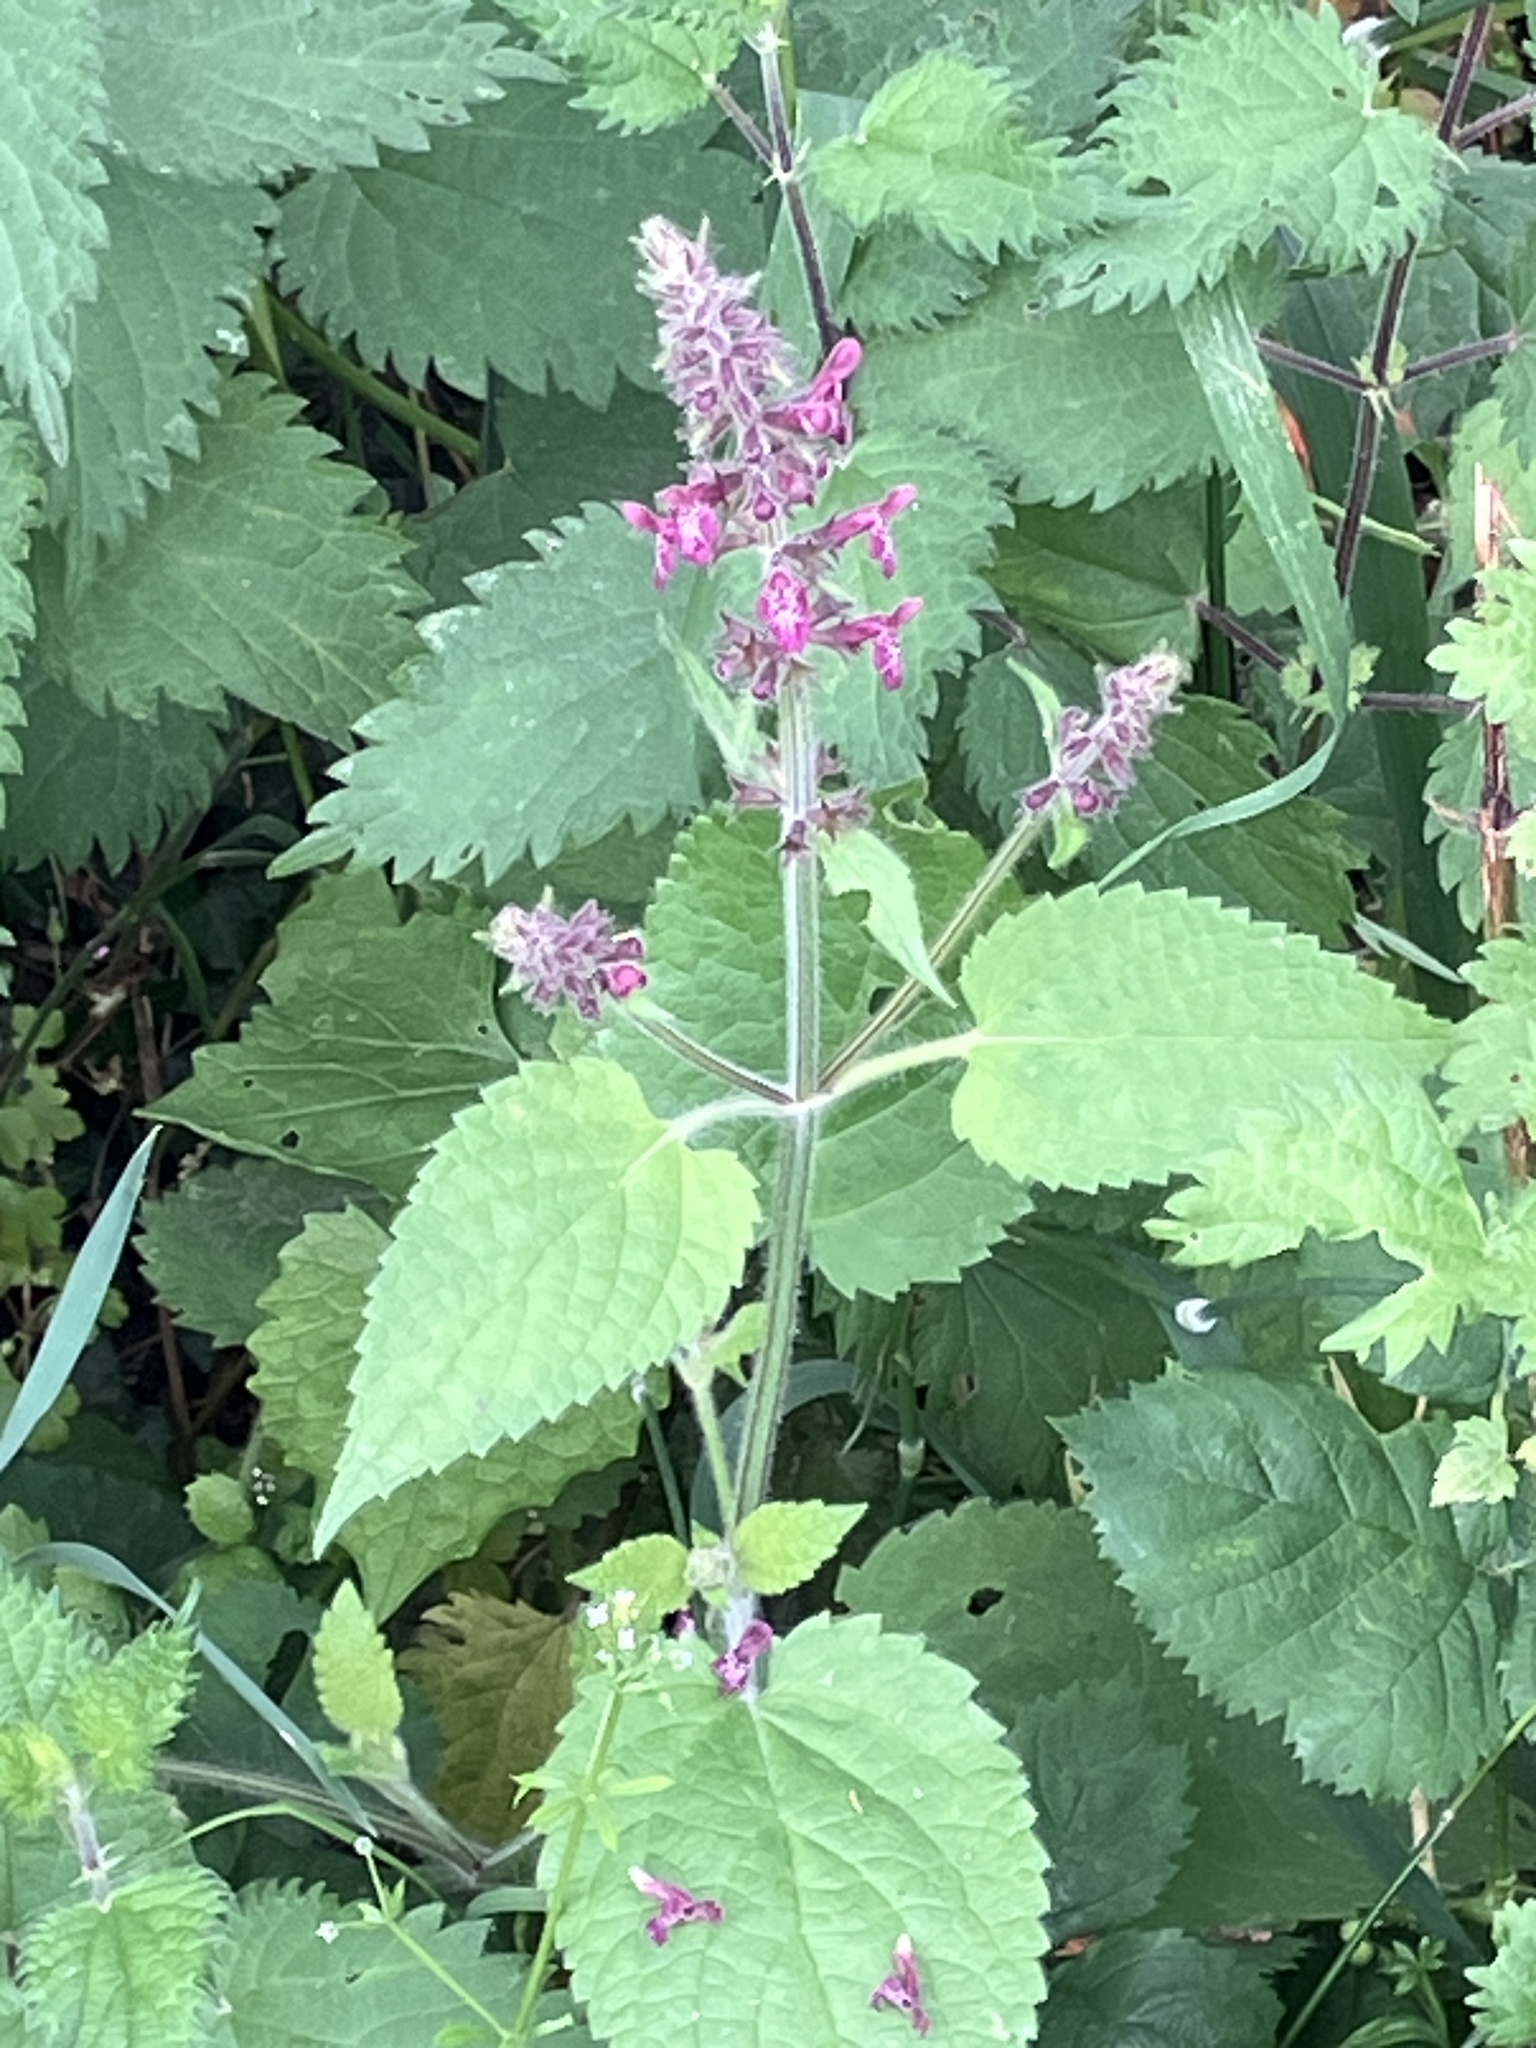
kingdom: Plantae
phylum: Tracheophyta
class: Magnoliopsida
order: Lamiales
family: Lamiaceae
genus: Stachys
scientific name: Stachys sylvatica
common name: Hedge woundwort
